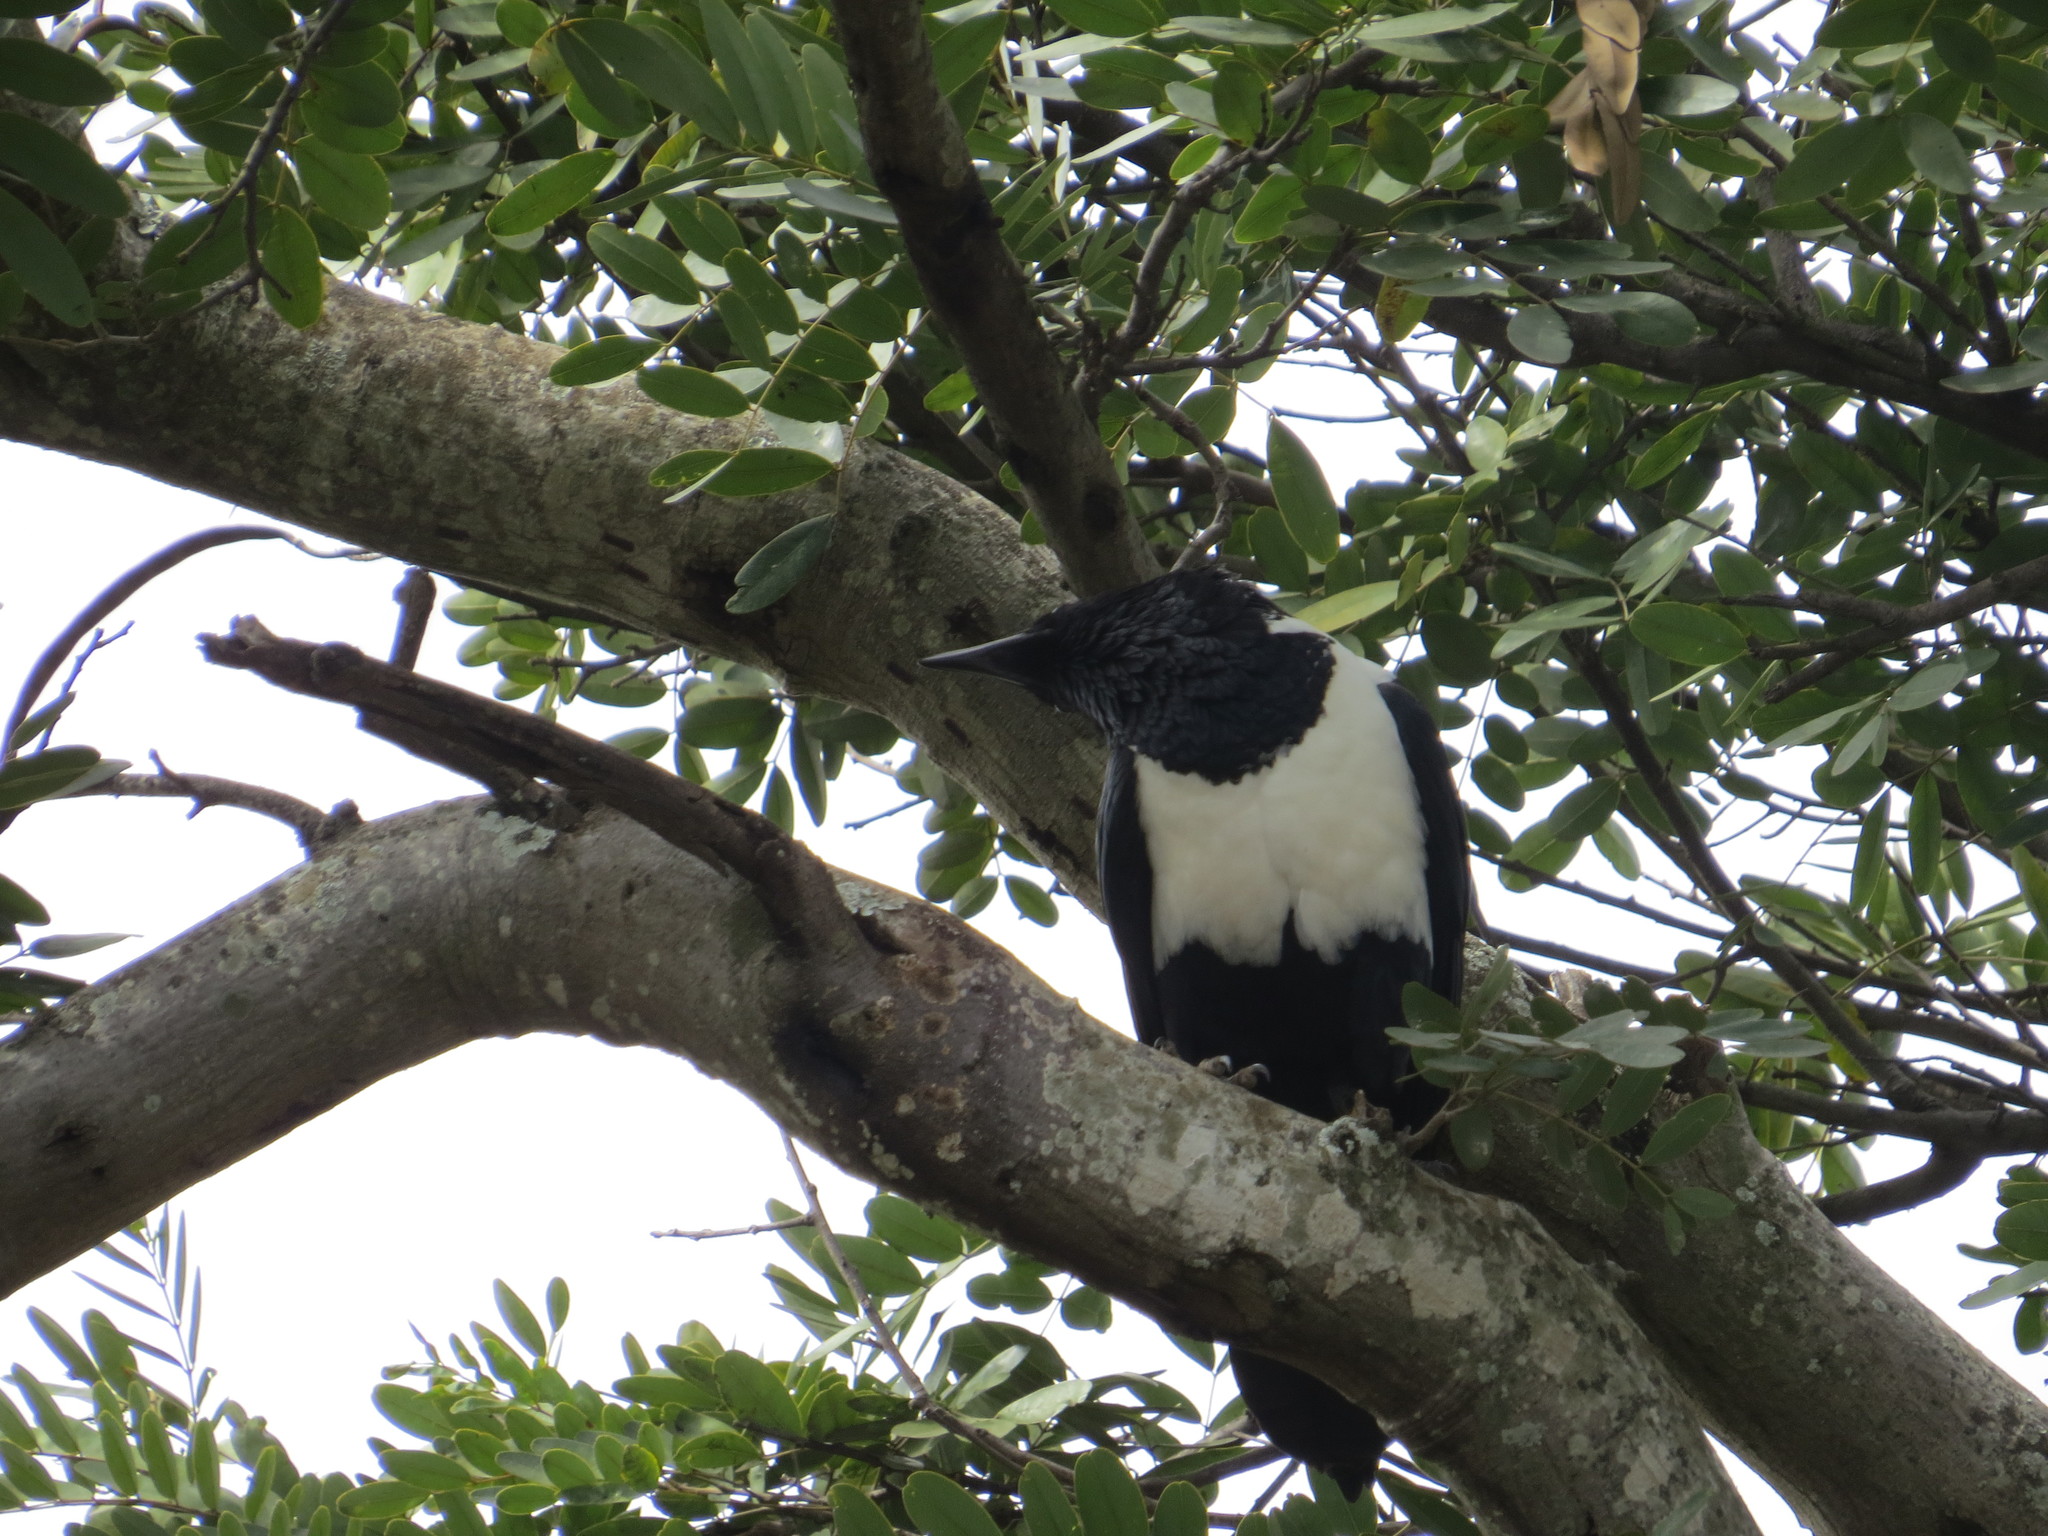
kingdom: Animalia
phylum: Chordata
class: Aves
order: Passeriformes
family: Corvidae
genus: Corvus
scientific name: Corvus albus
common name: Pied crow
